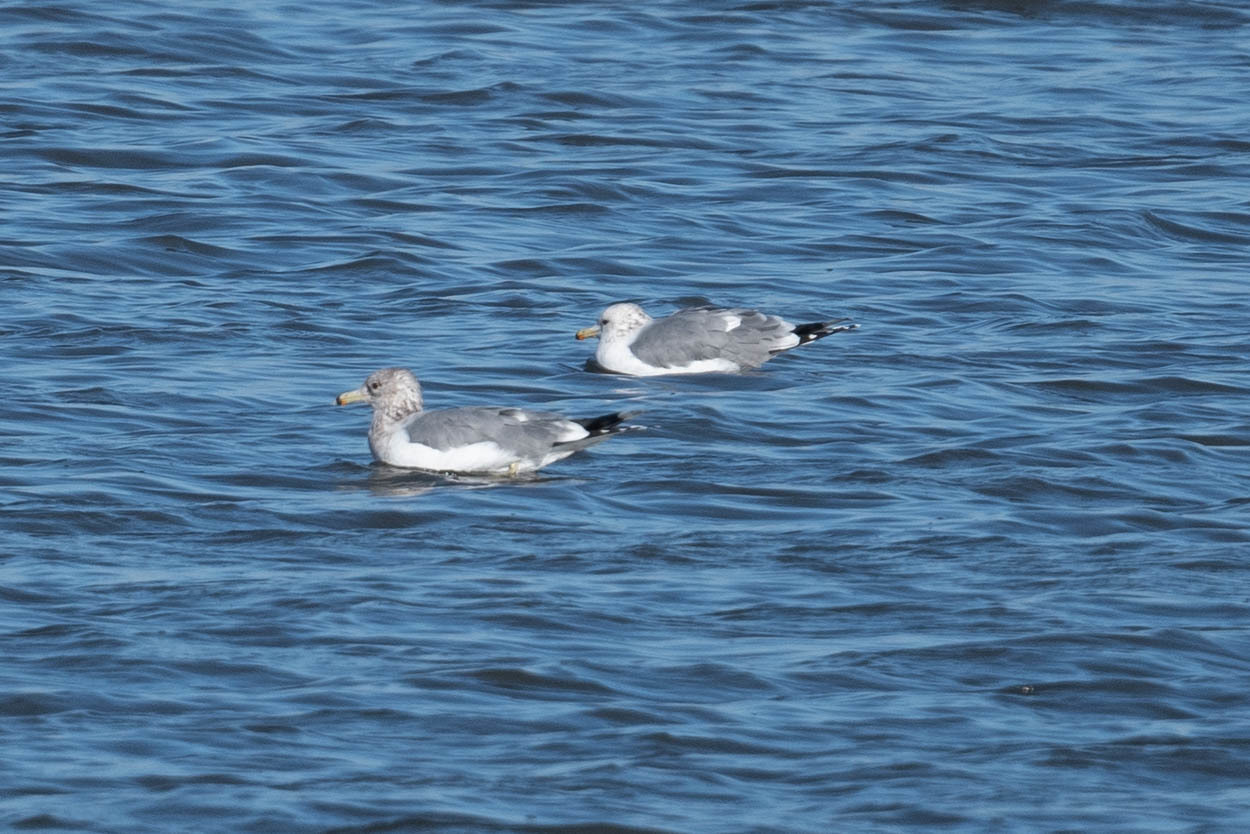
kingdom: Animalia
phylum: Chordata
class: Aves
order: Charadriiformes
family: Laridae
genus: Larus
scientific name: Larus californicus
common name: California gull
